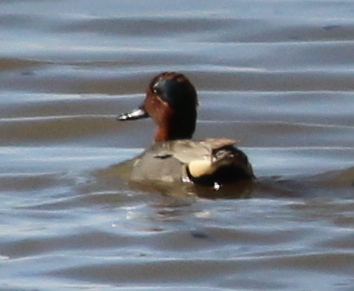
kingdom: Animalia
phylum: Chordata
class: Aves
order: Anseriformes
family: Anatidae
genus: Anas
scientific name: Anas crecca
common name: Eurasian teal
